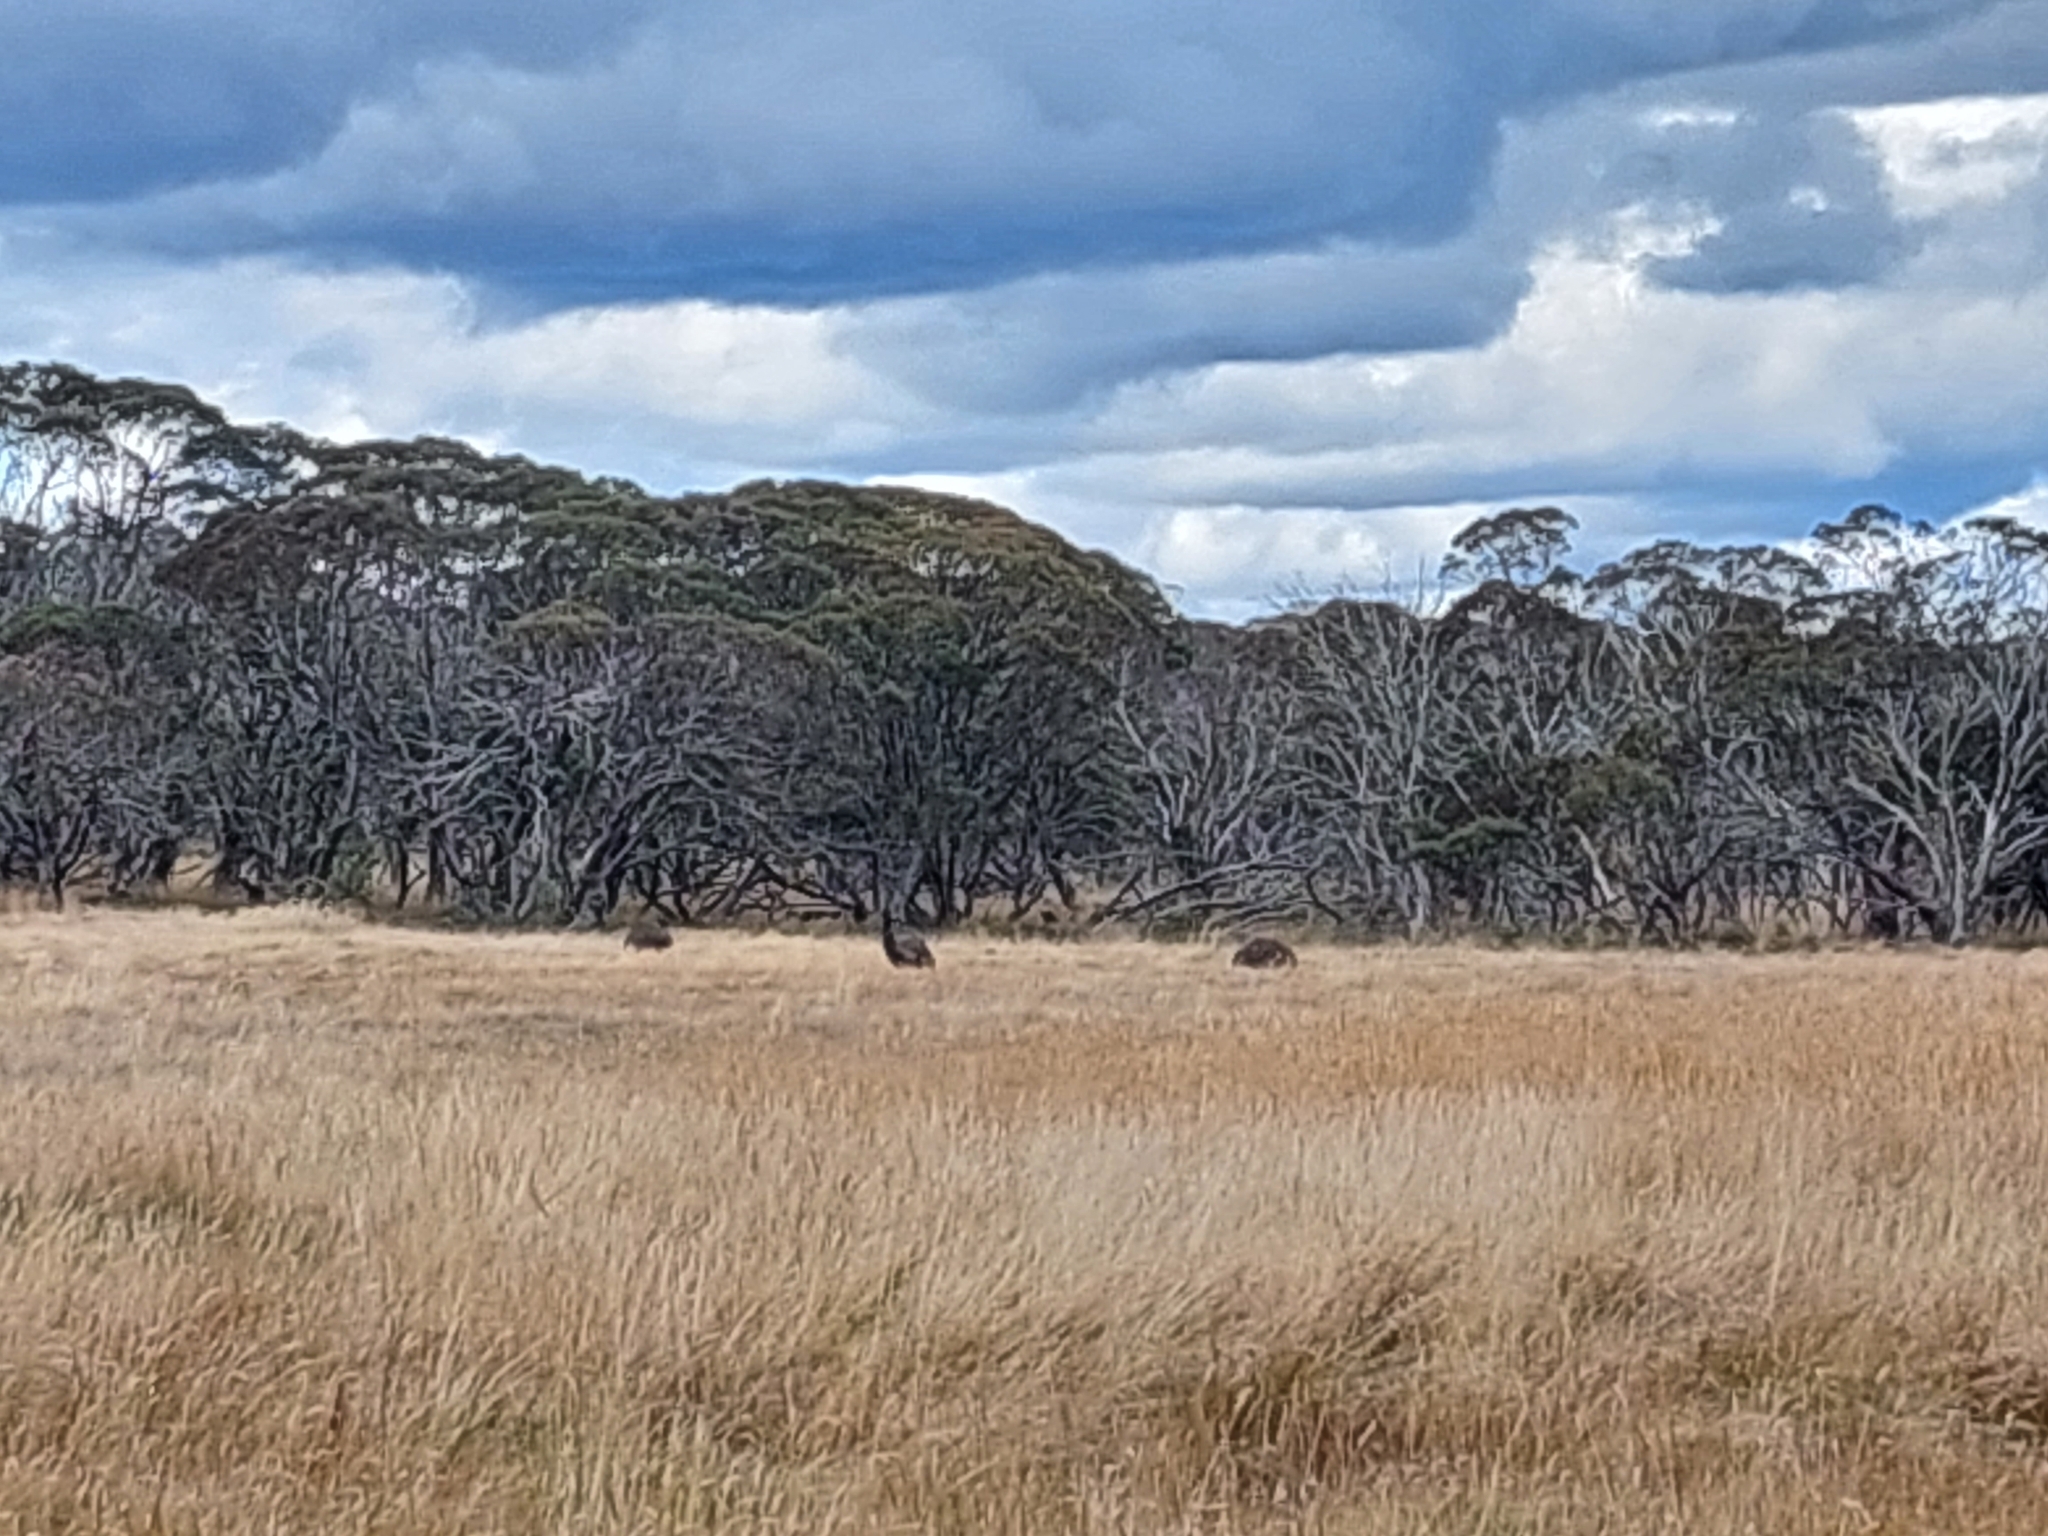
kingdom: Animalia
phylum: Chordata
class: Aves
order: Casuariiformes
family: Dromaiidae
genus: Dromaius
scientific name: Dromaius novaehollandiae
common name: Emu
